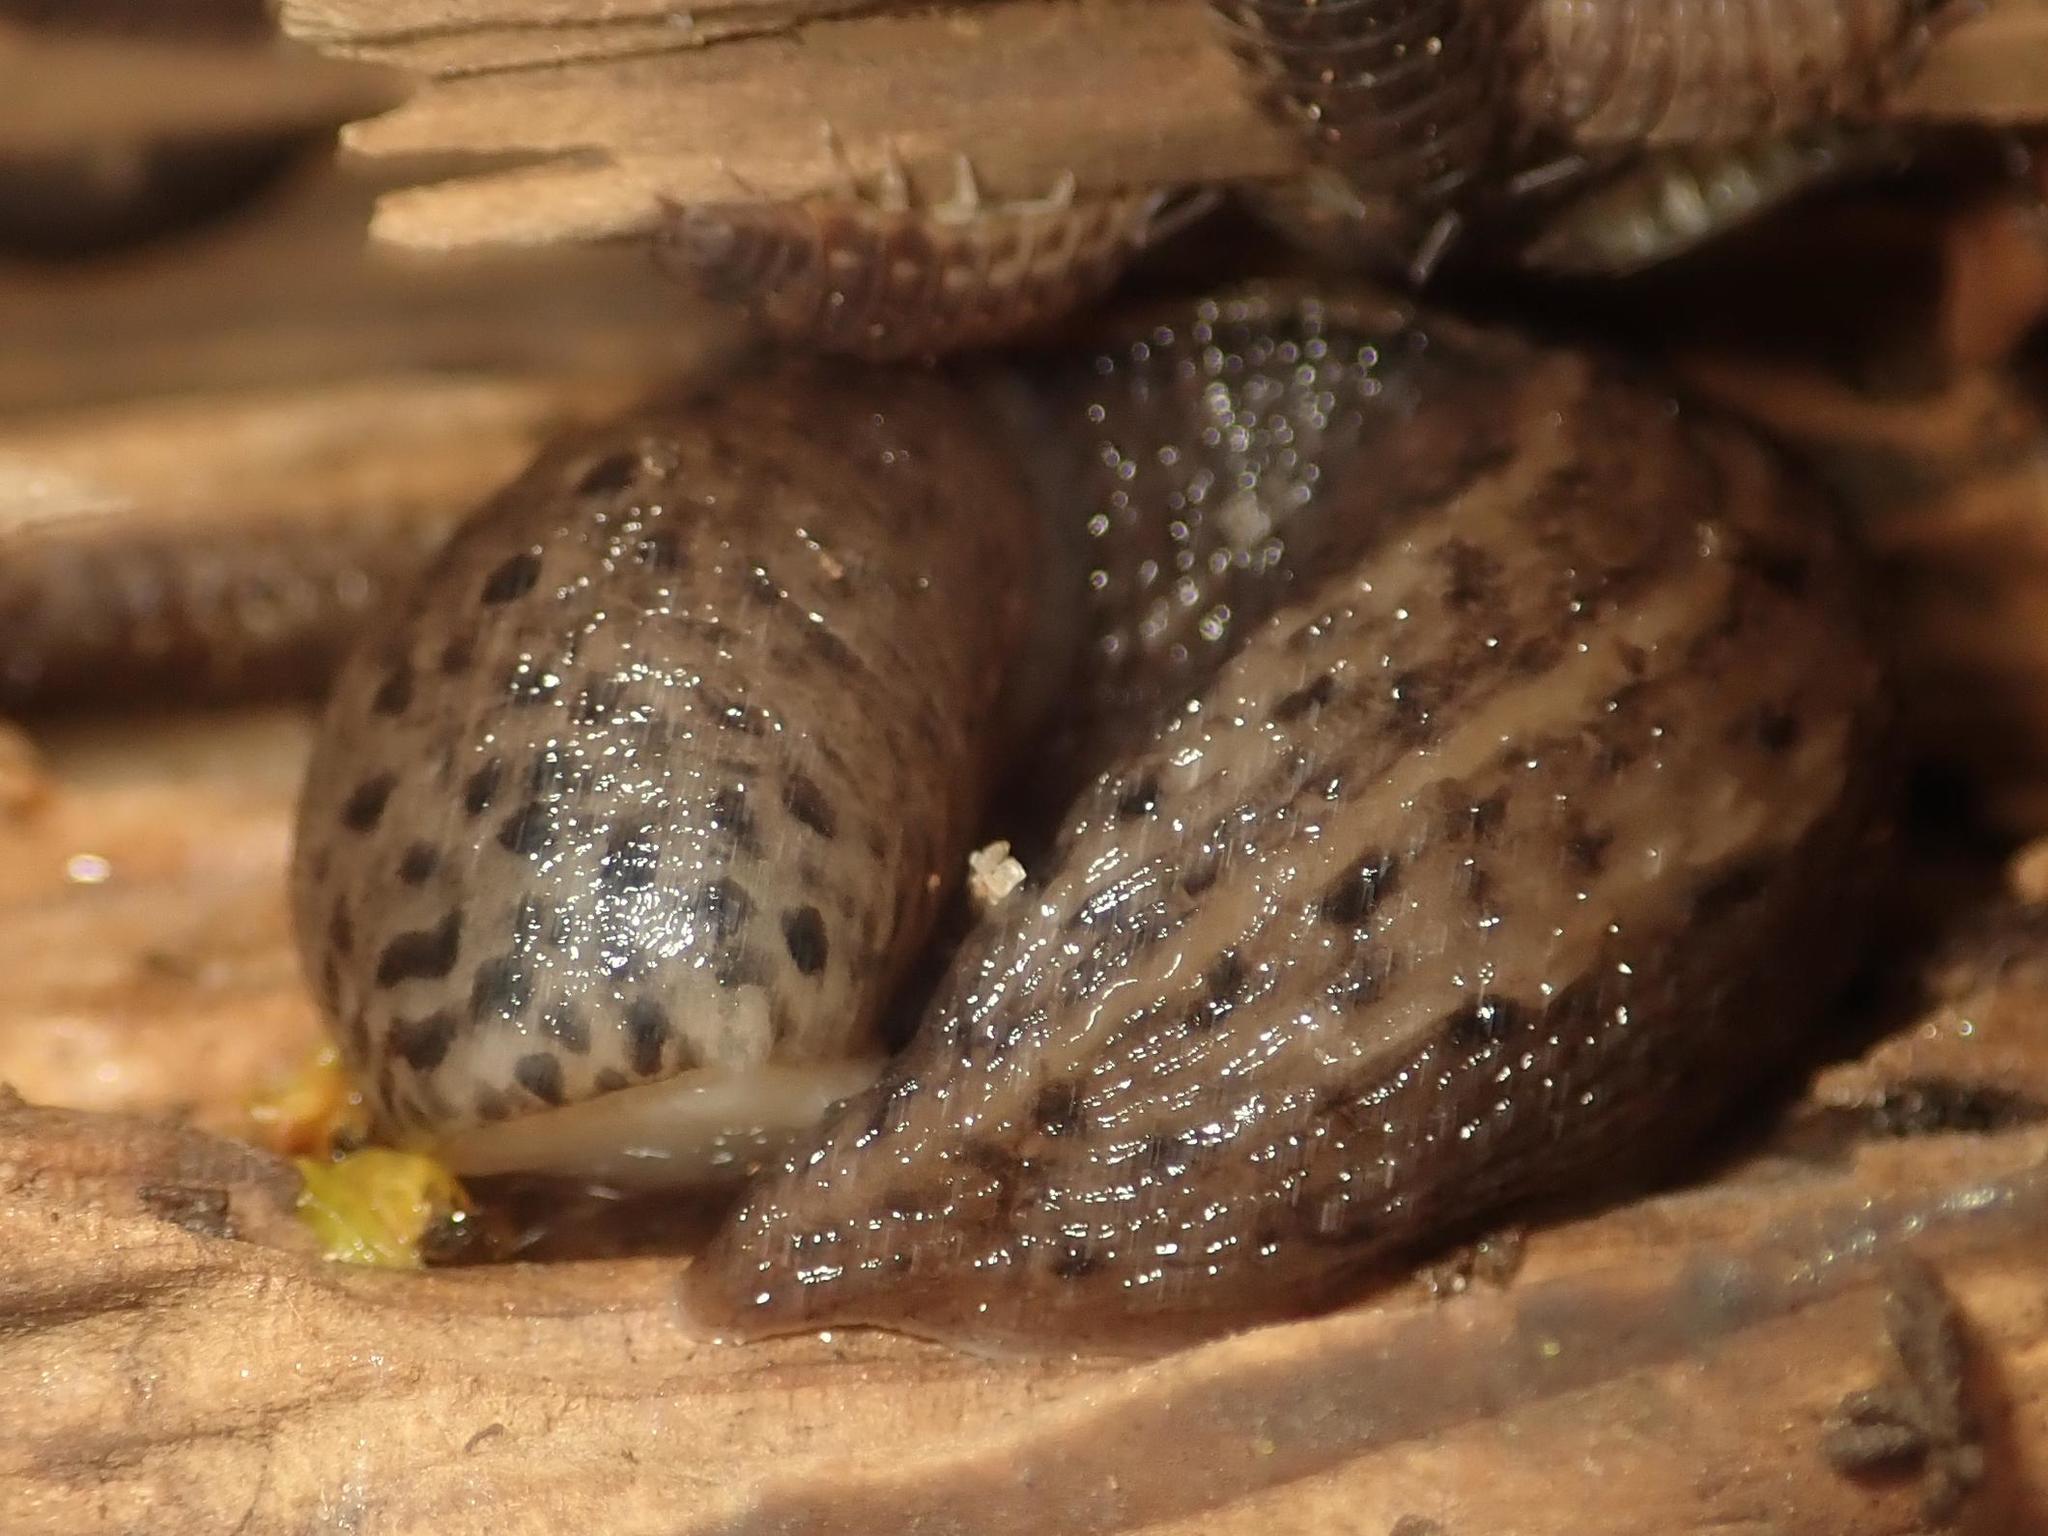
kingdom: Animalia
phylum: Mollusca
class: Gastropoda
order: Stylommatophora
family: Limacidae
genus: Limax
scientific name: Limax maximus
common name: Great grey slug
